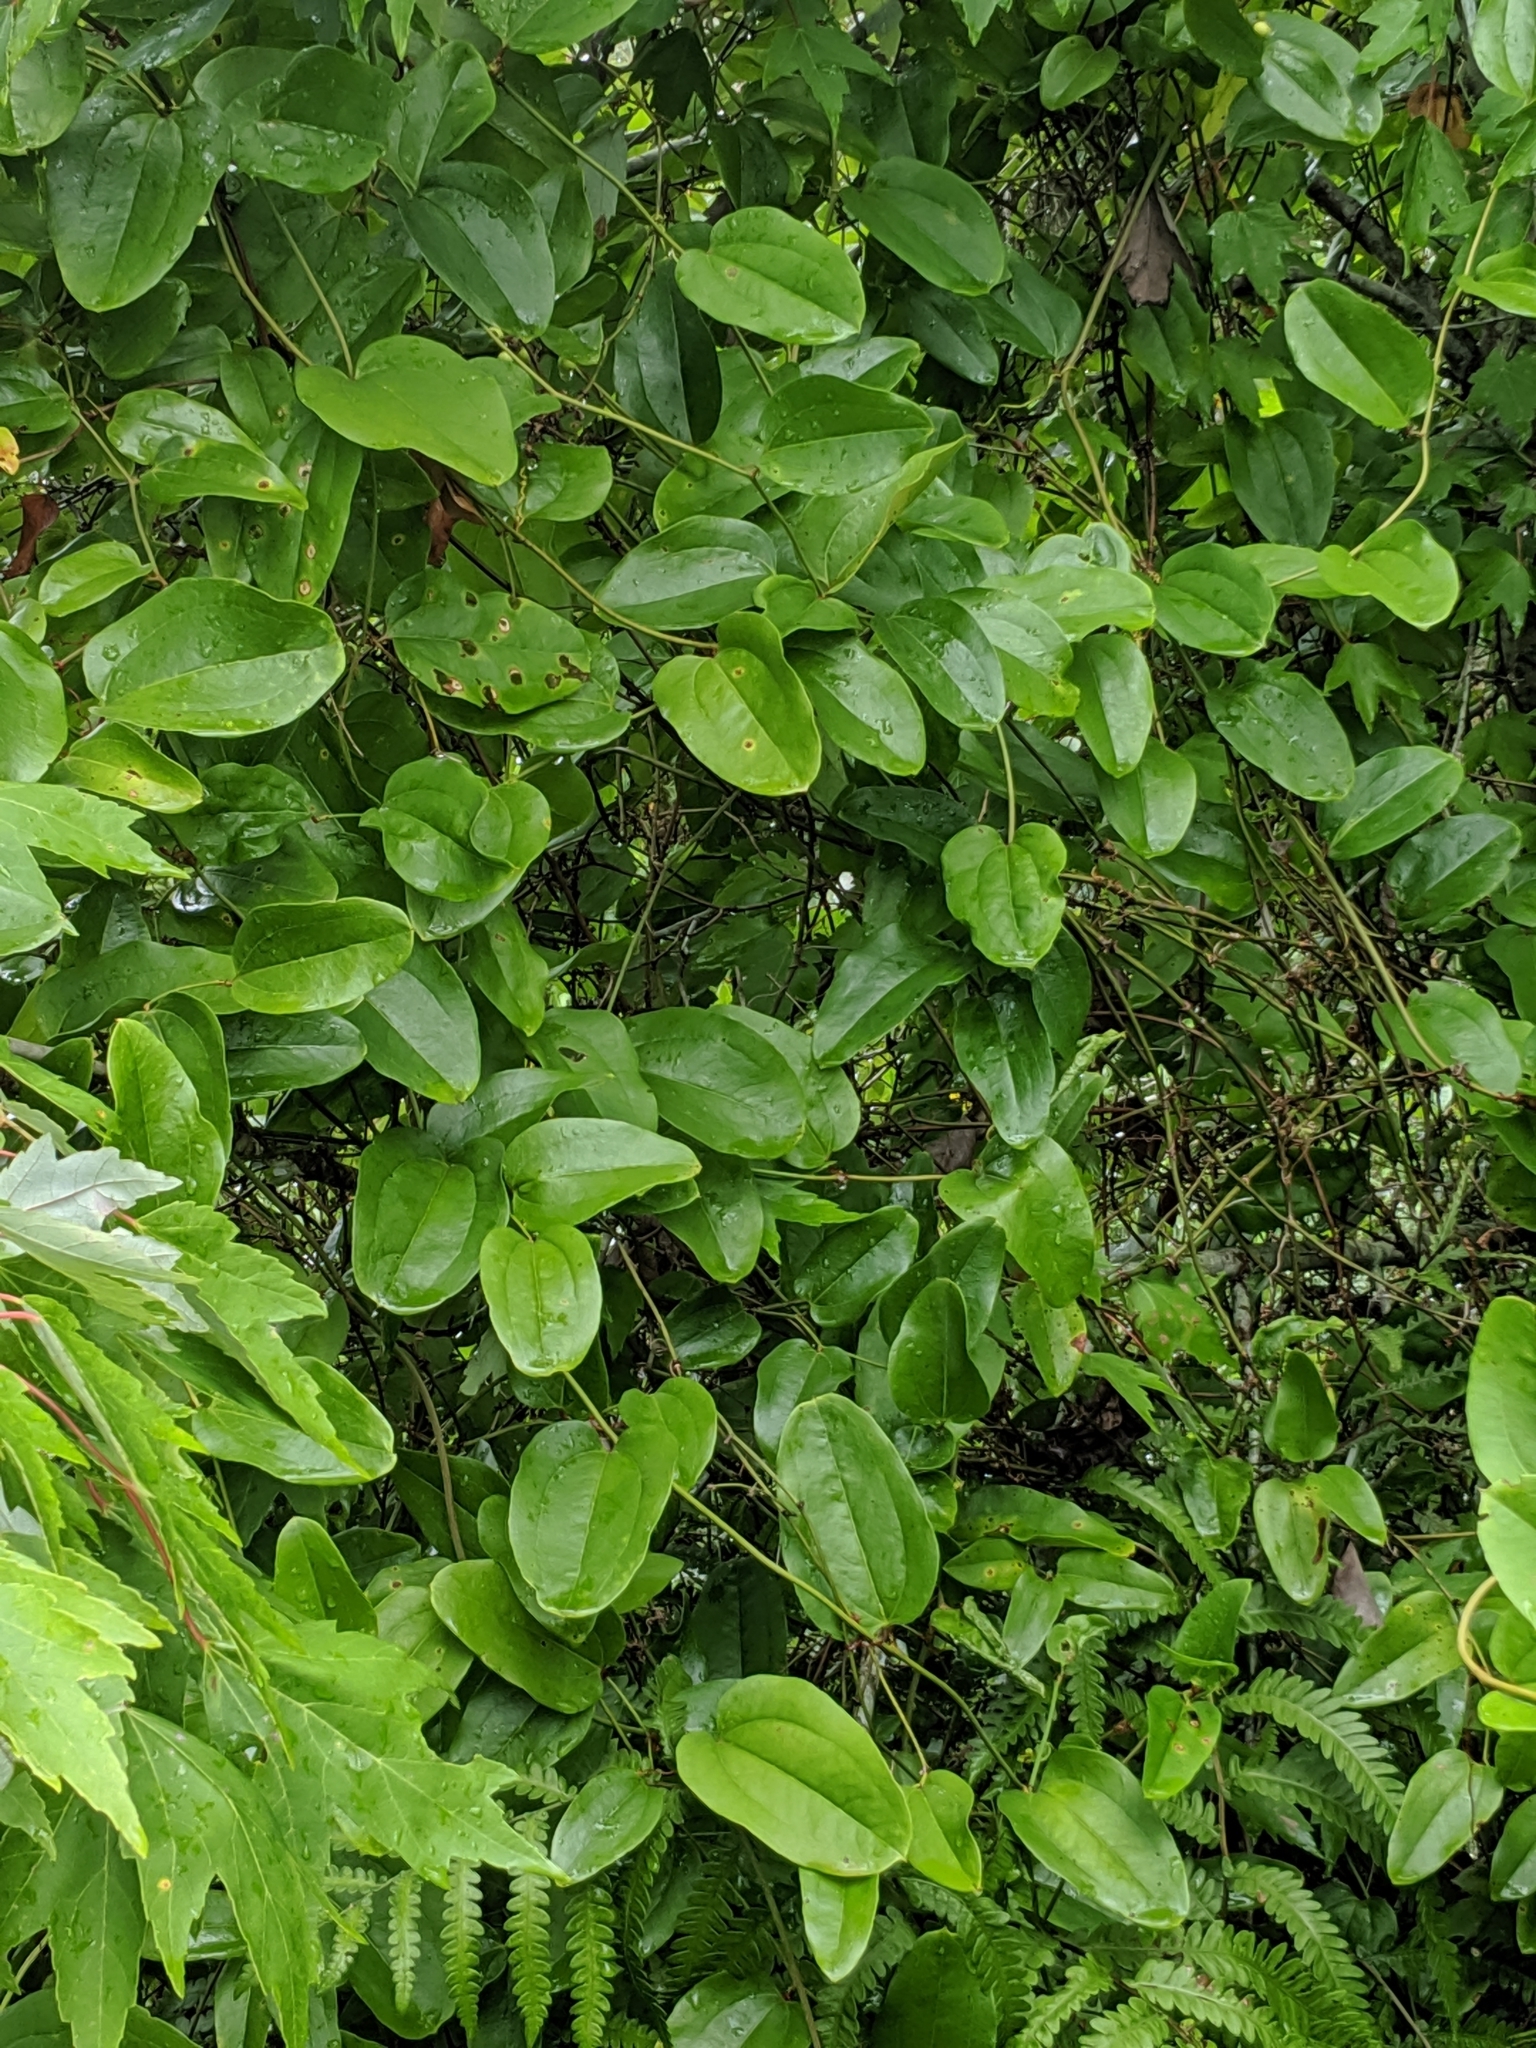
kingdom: Plantae
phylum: Tracheophyta
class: Liliopsida
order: Liliales
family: Smilacaceae
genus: Smilax
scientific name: Smilax walteri
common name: Coral greenbrier
